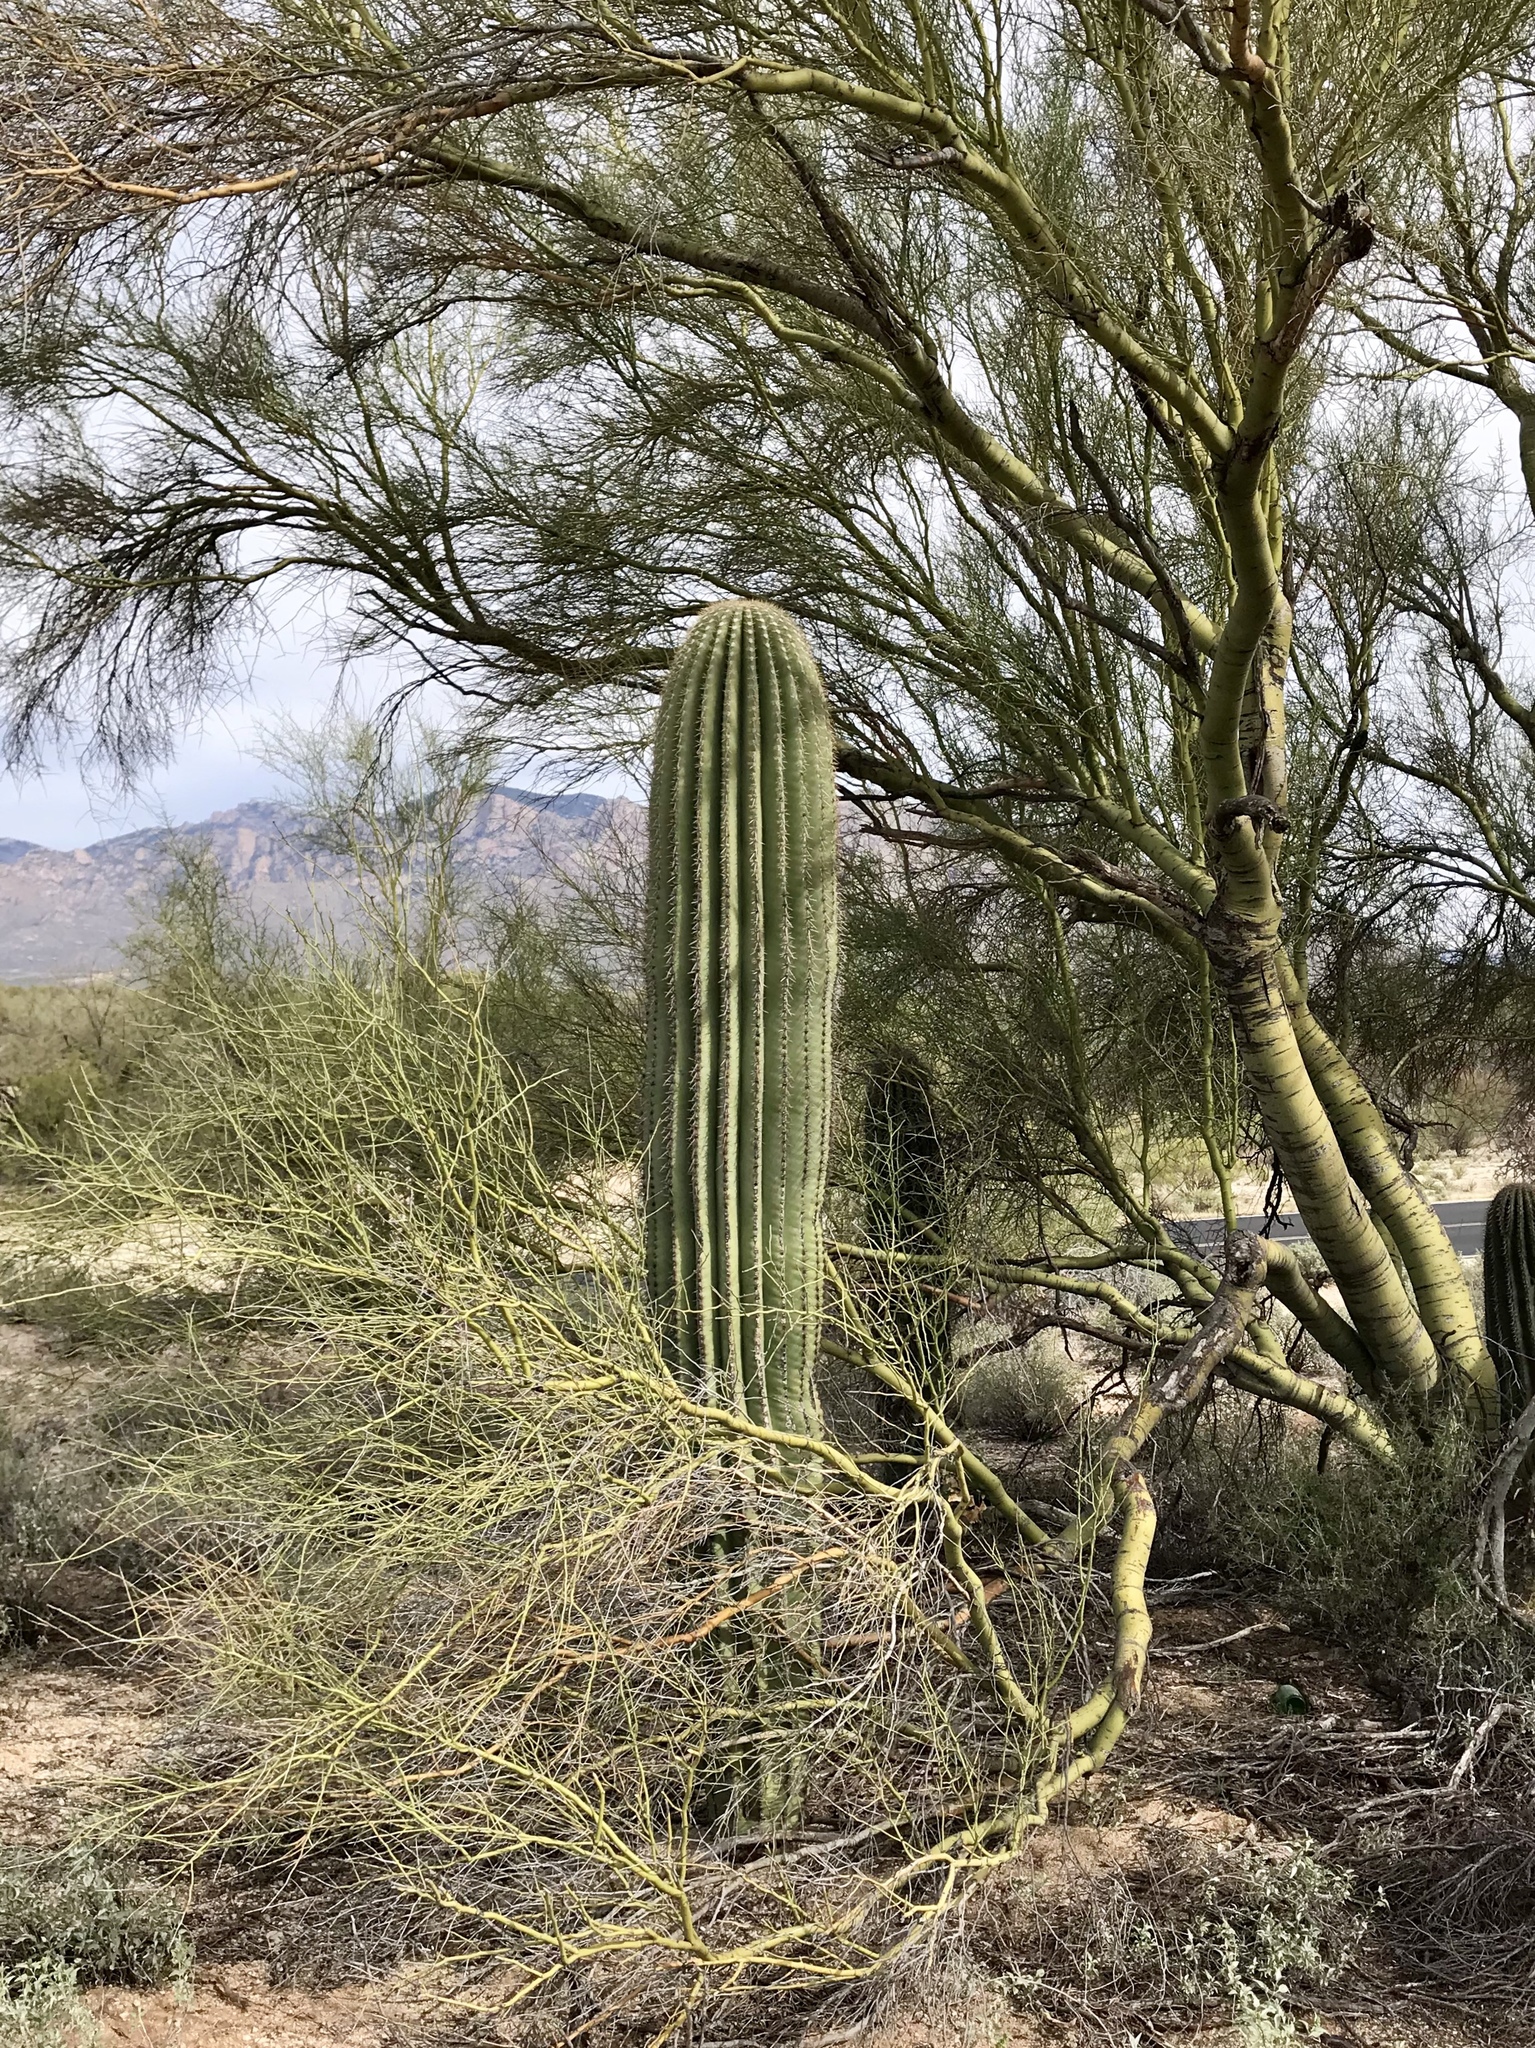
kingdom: Plantae
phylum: Tracheophyta
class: Magnoliopsida
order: Caryophyllales
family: Cactaceae
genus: Carnegiea
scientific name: Carnegiea gigantea
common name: Saguaro
